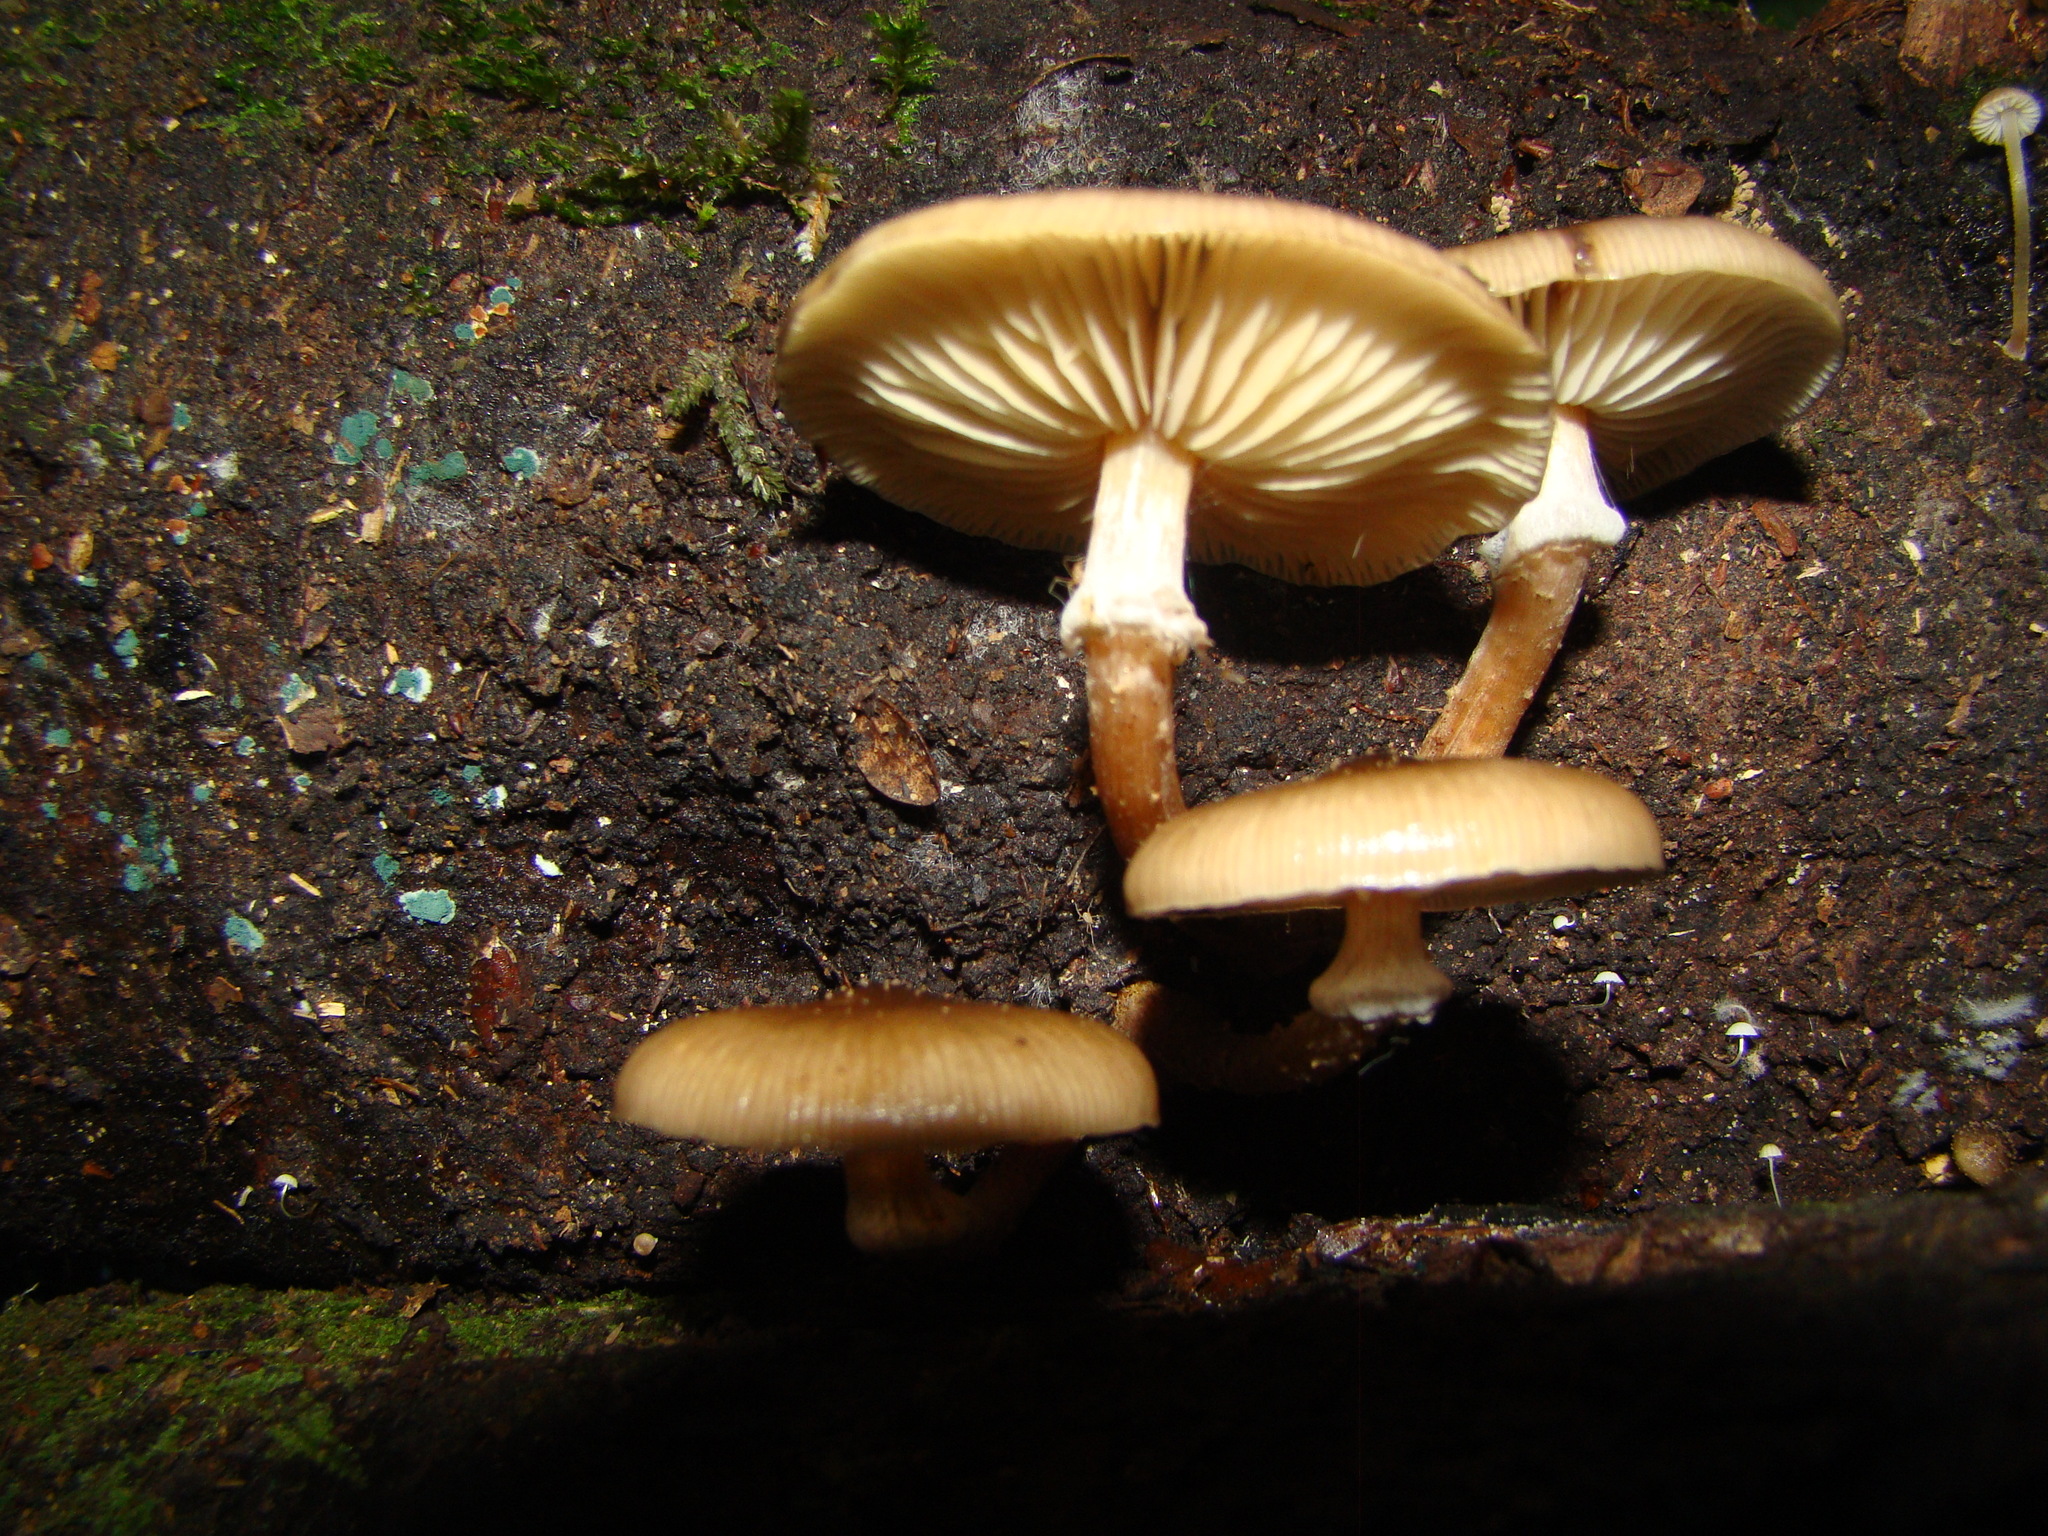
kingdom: Fungi
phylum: Basidiomycota
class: Agaricomycetes
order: Agaricales
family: Physalacriaceae
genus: Armillaria
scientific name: Armillaria limonea
